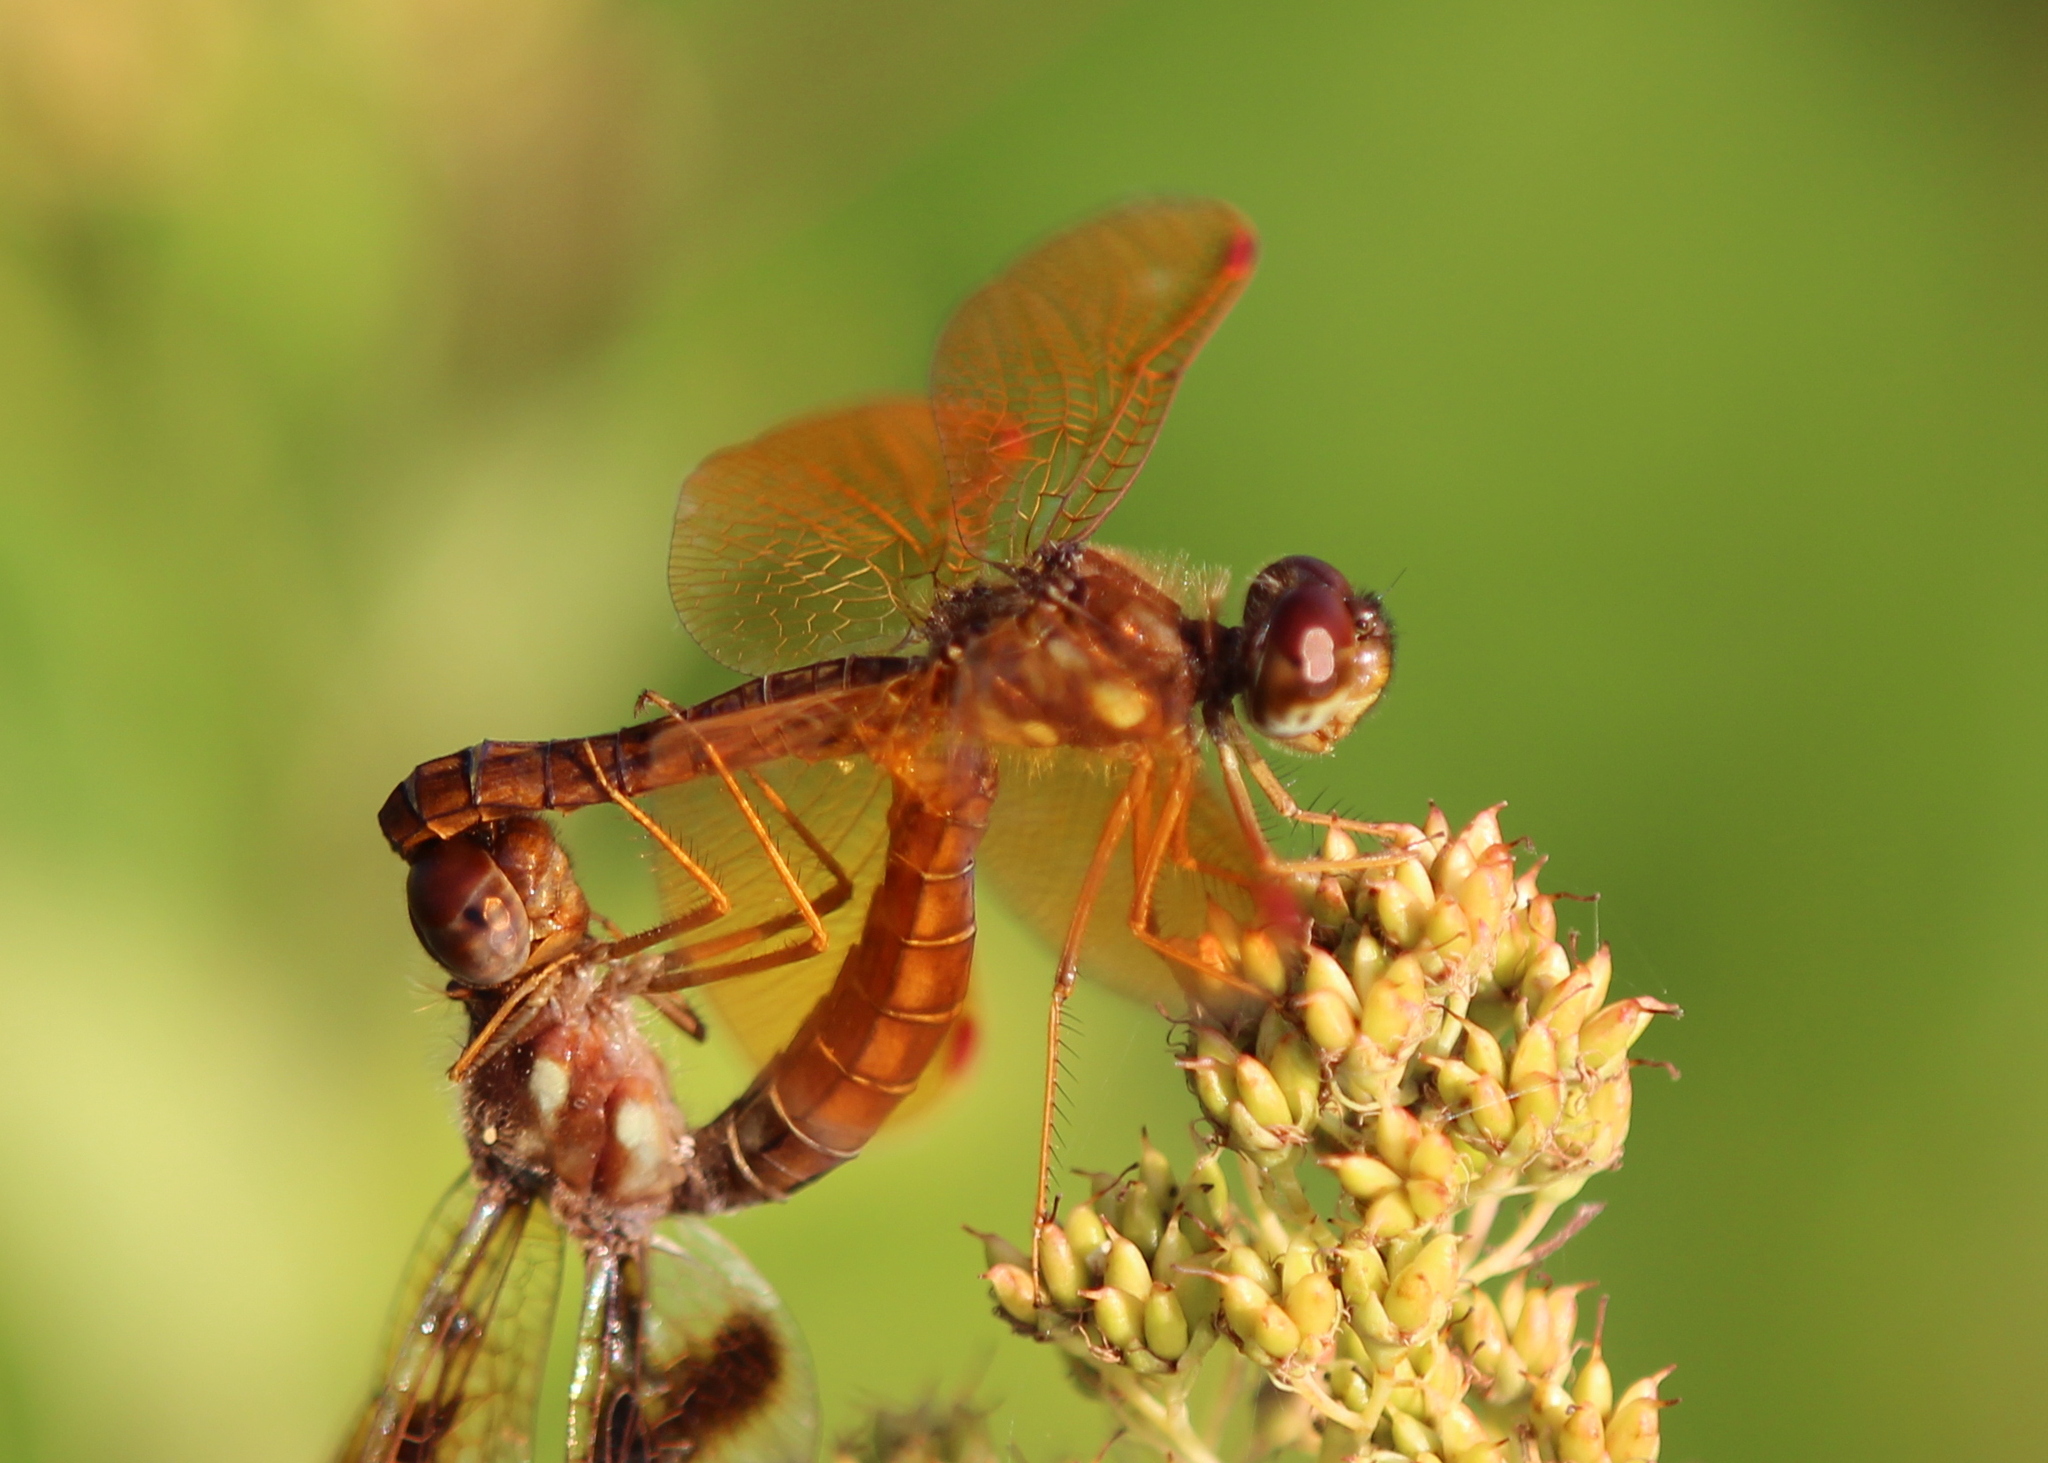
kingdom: Animalia
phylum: Arthropoda
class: Insecta
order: Odonata
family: Libellulidae
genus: Perithemis
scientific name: Perithemis tenera
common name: Eastern amberwing
